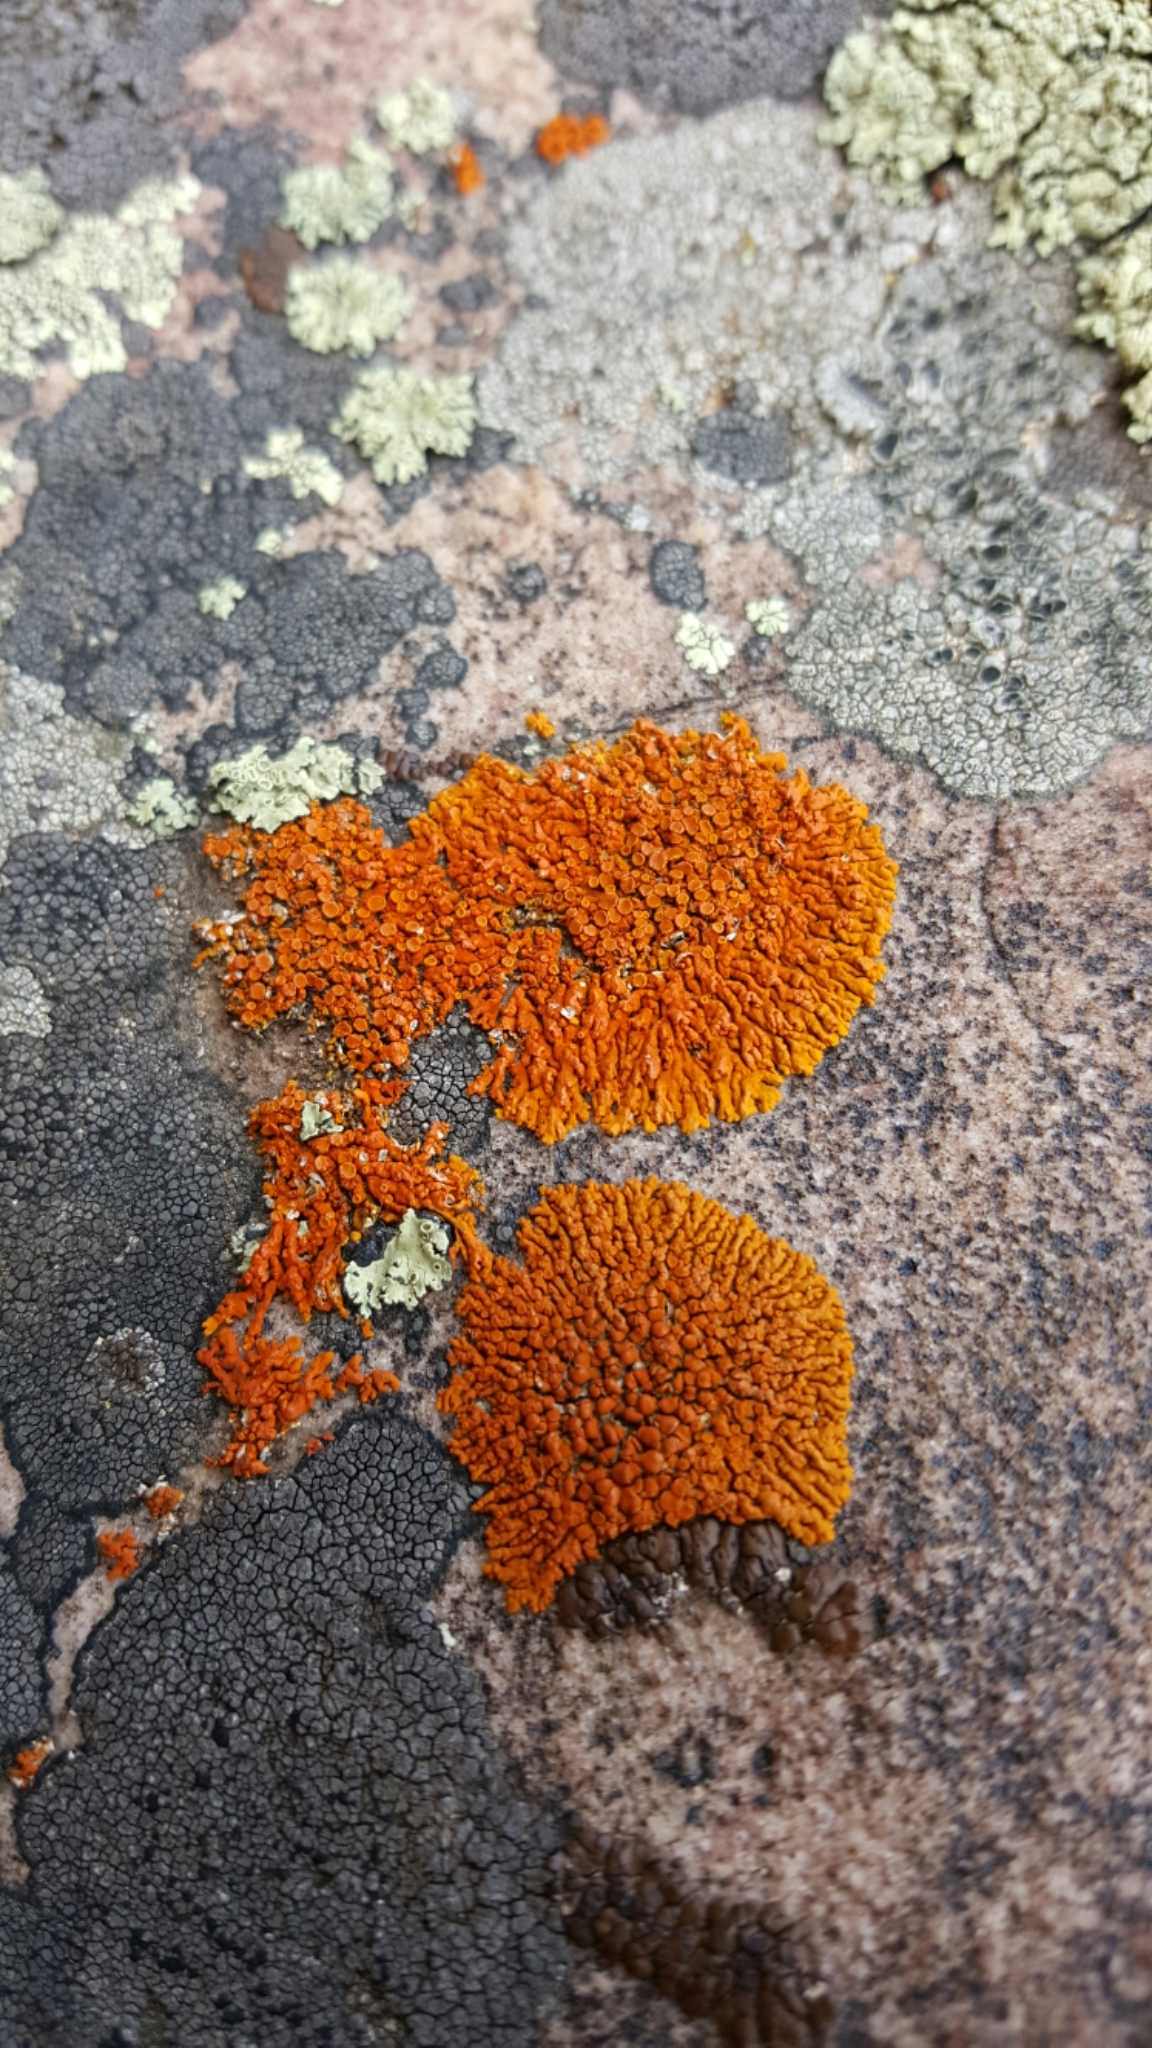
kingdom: Fungi
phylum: Ascomycota
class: Lecanoromycetes
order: Teloschistales
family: Teloschistaceae
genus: Xanthoria
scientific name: Xanthoria elegans
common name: Elegant sunburst lichen
